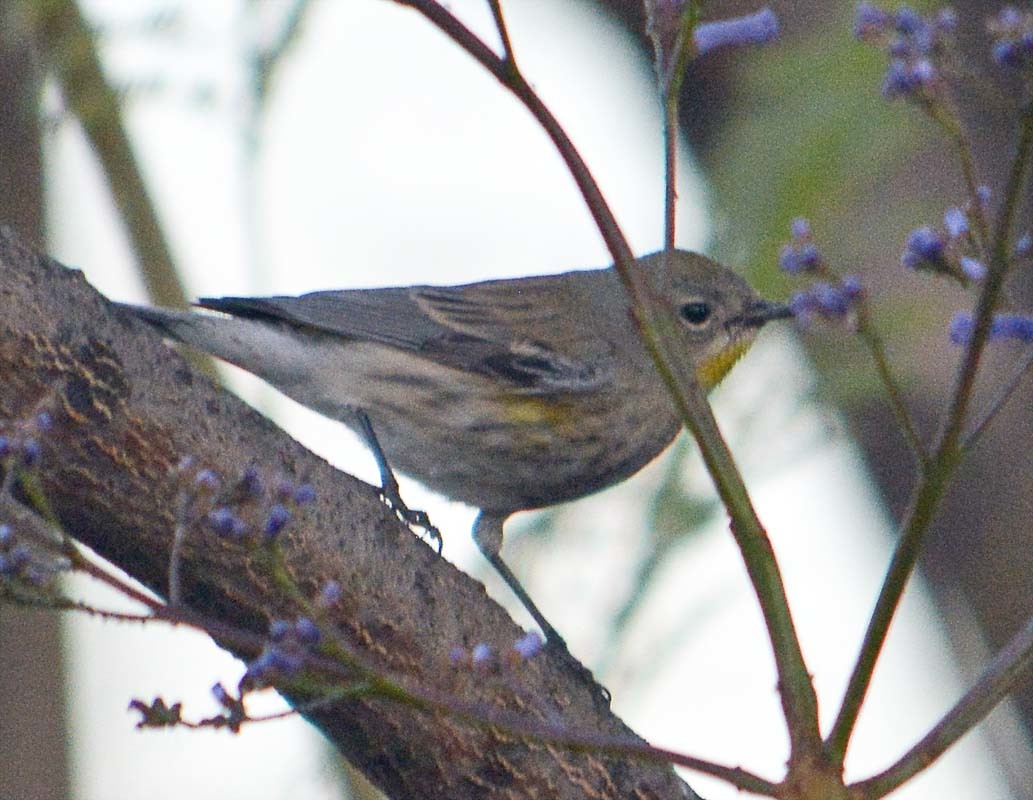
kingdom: Animalia
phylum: Chordata
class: Aves
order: Passeriformes
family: Parulidae
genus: Setophaga
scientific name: Setophaga auduboni
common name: Audubon's warbler
